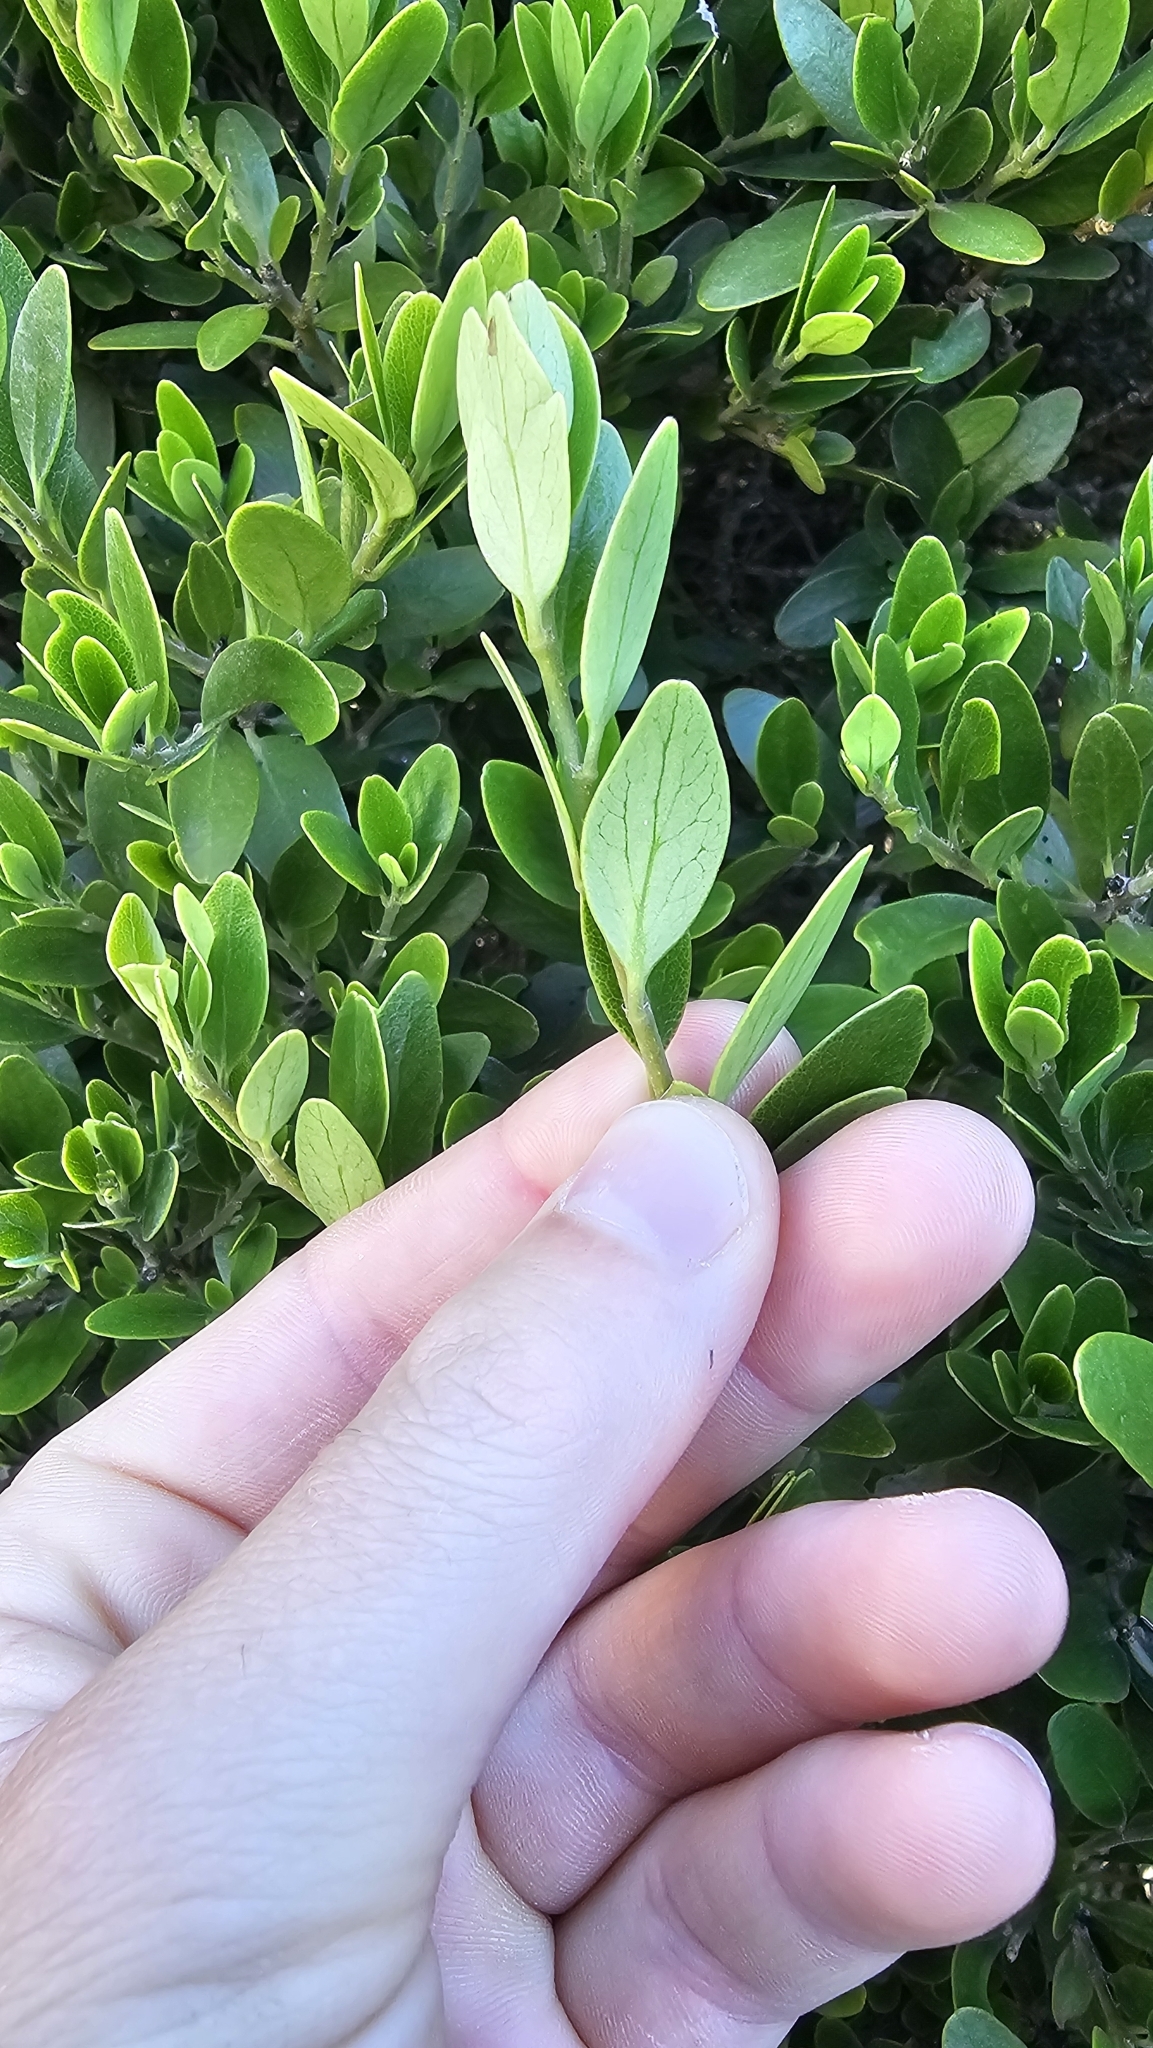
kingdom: Plantae
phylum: Tracheophyta
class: Magnoliopsida
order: Malpighiales
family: Violaceae
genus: Melicytus
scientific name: Melicytus obovatus
